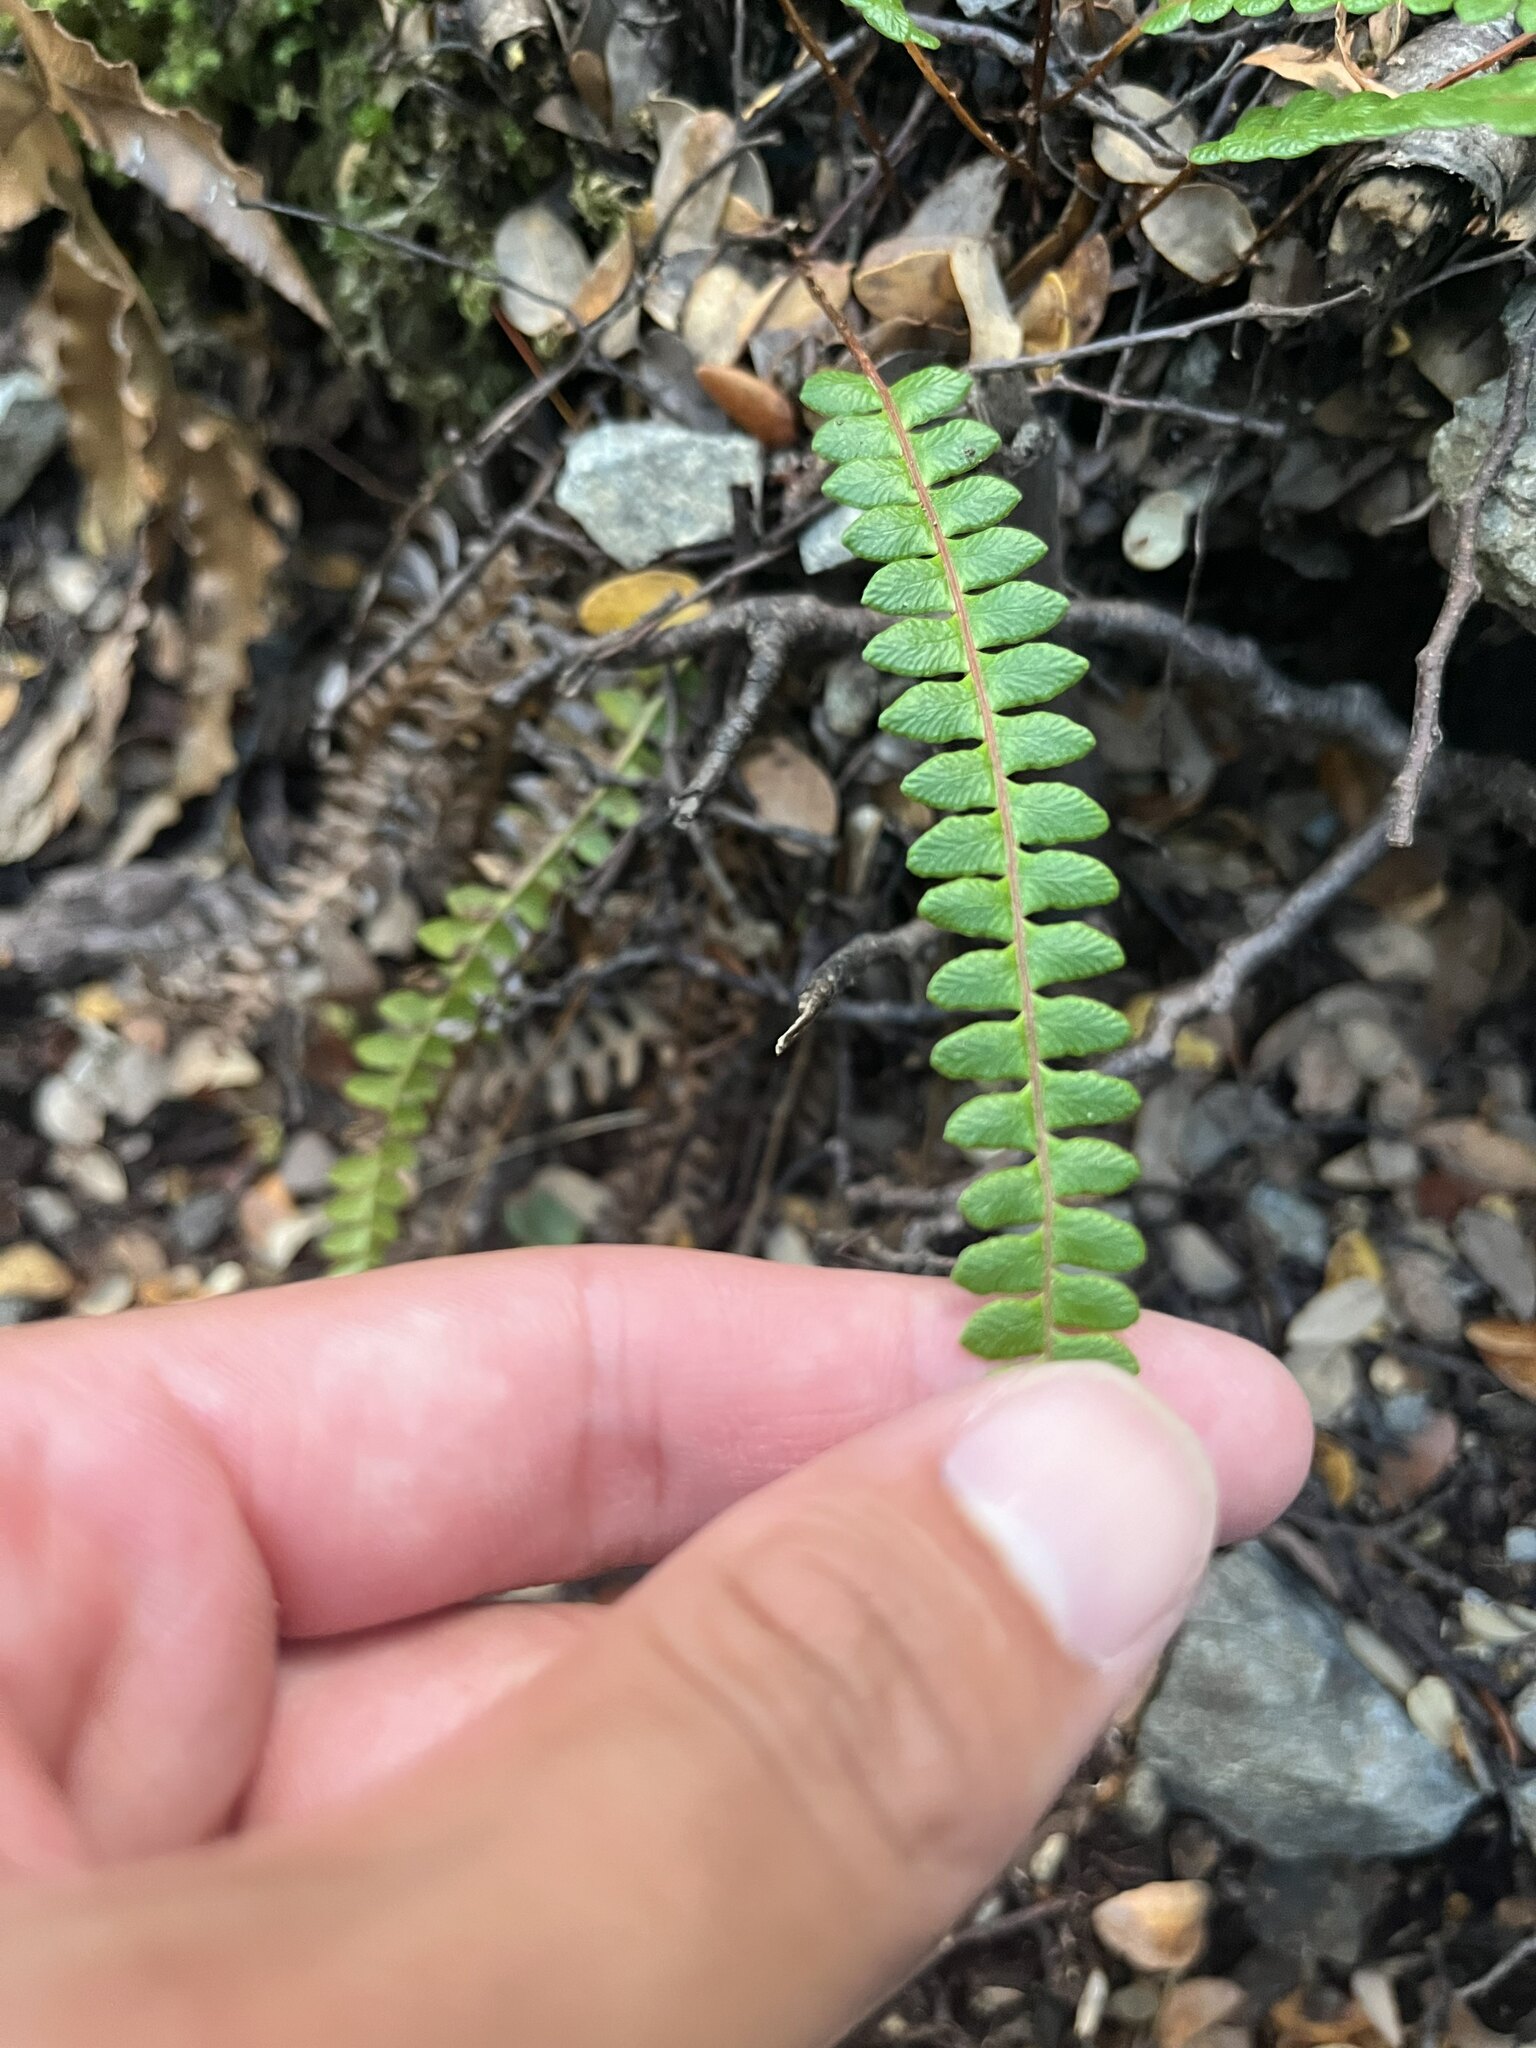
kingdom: Plantae
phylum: Tracheophyta
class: Polypodiopsida
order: Polypodiales
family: Blechnaceae
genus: Austroblechnum
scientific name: Austroblechnum penna-marina
